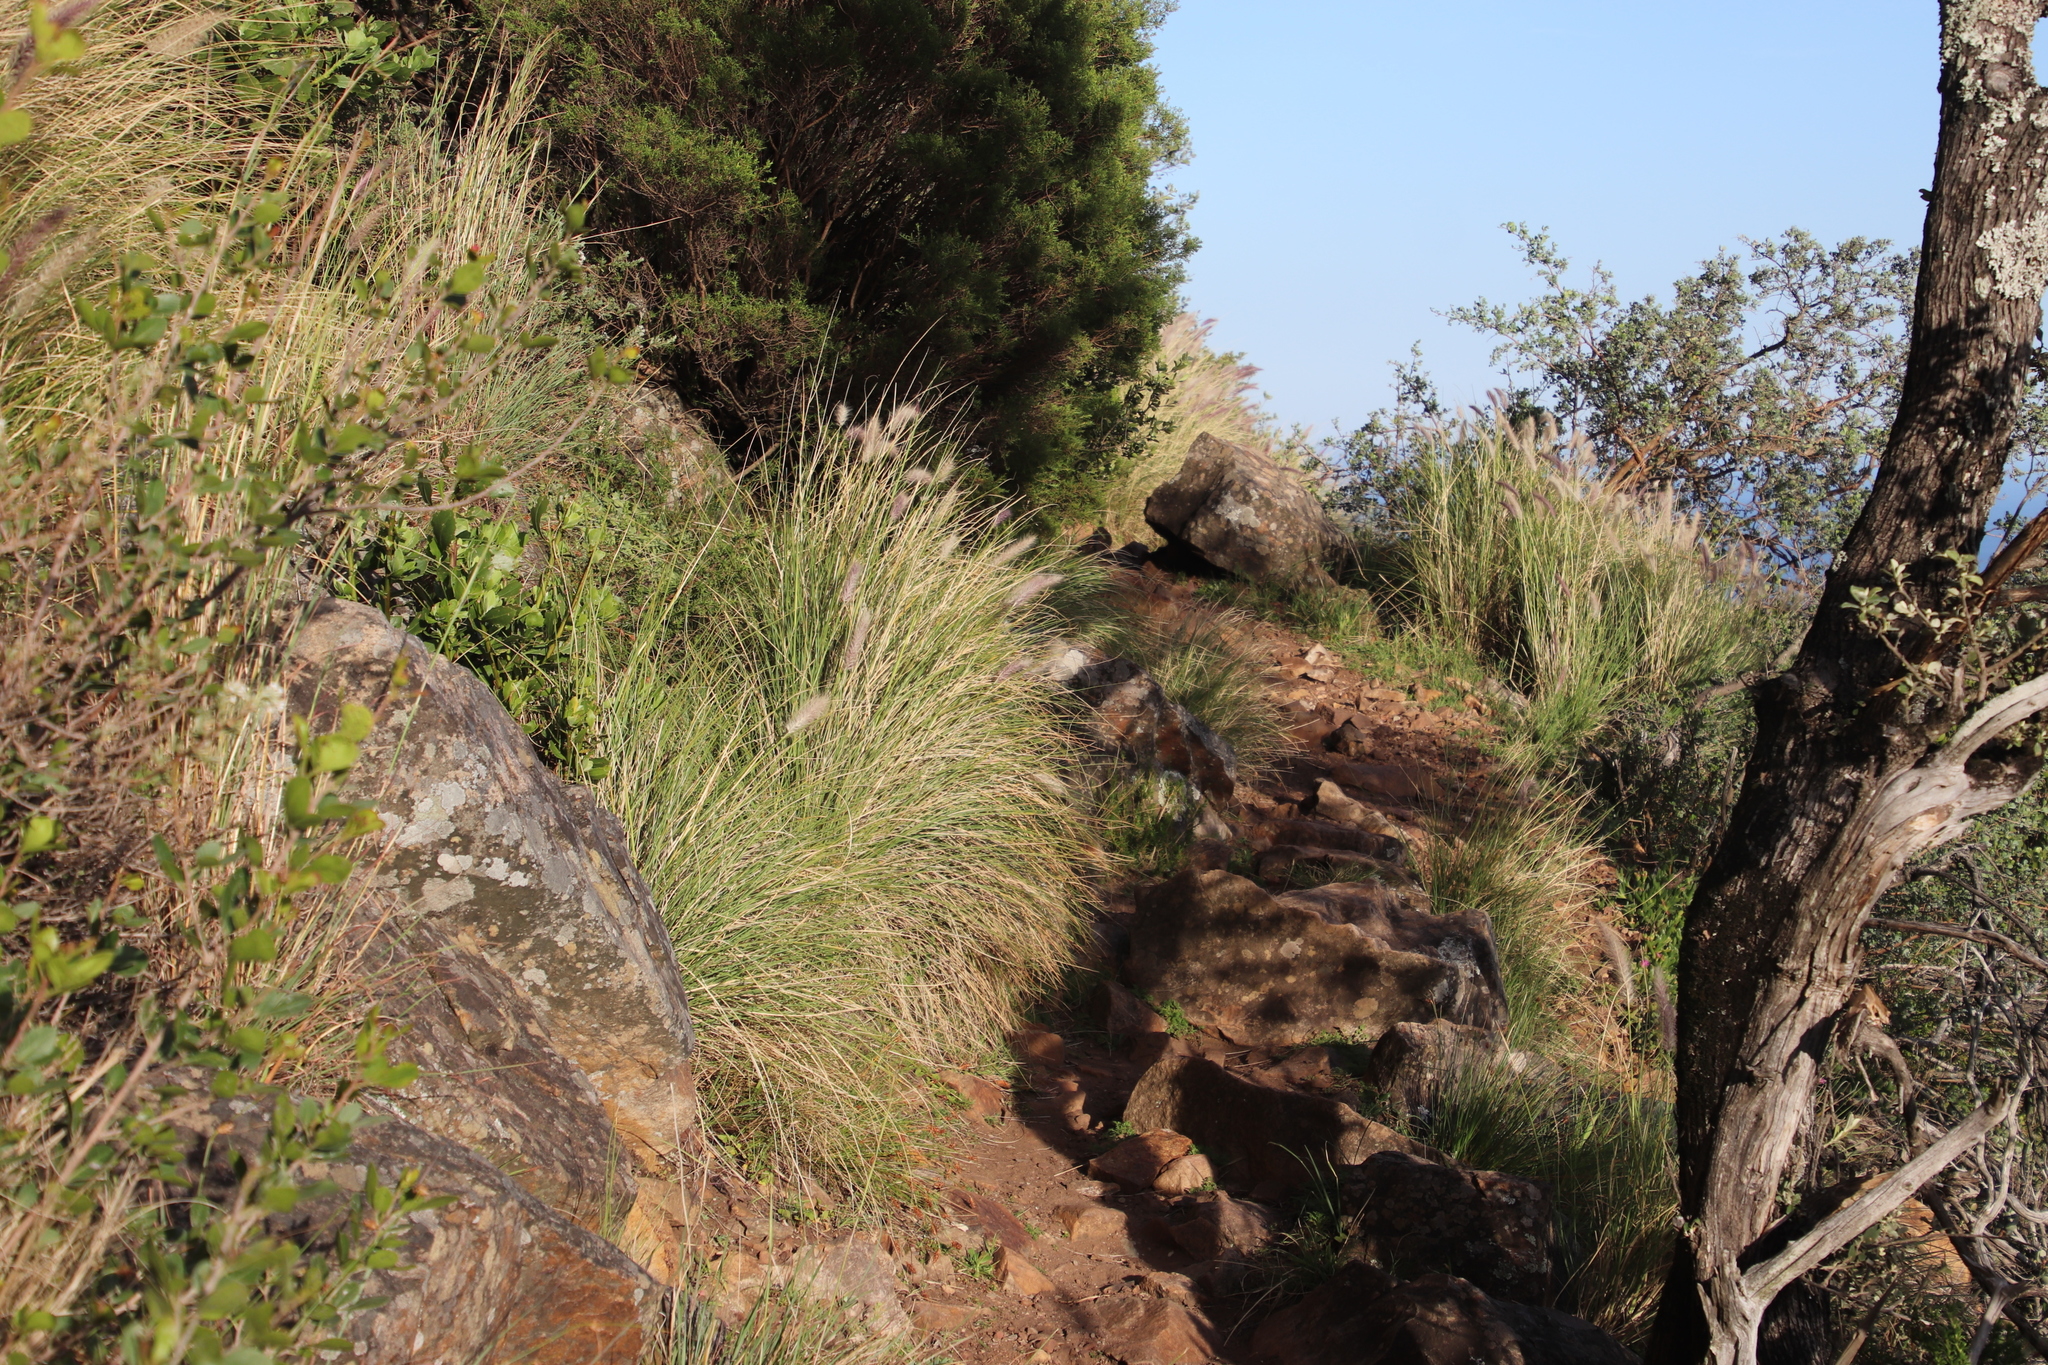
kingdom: Plantae
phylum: Tracheophyta
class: Liliopsida
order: Poales
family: Poaceae
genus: Cenchrus
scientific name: Cenchrus setaceus
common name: Crimson fountaingrass
